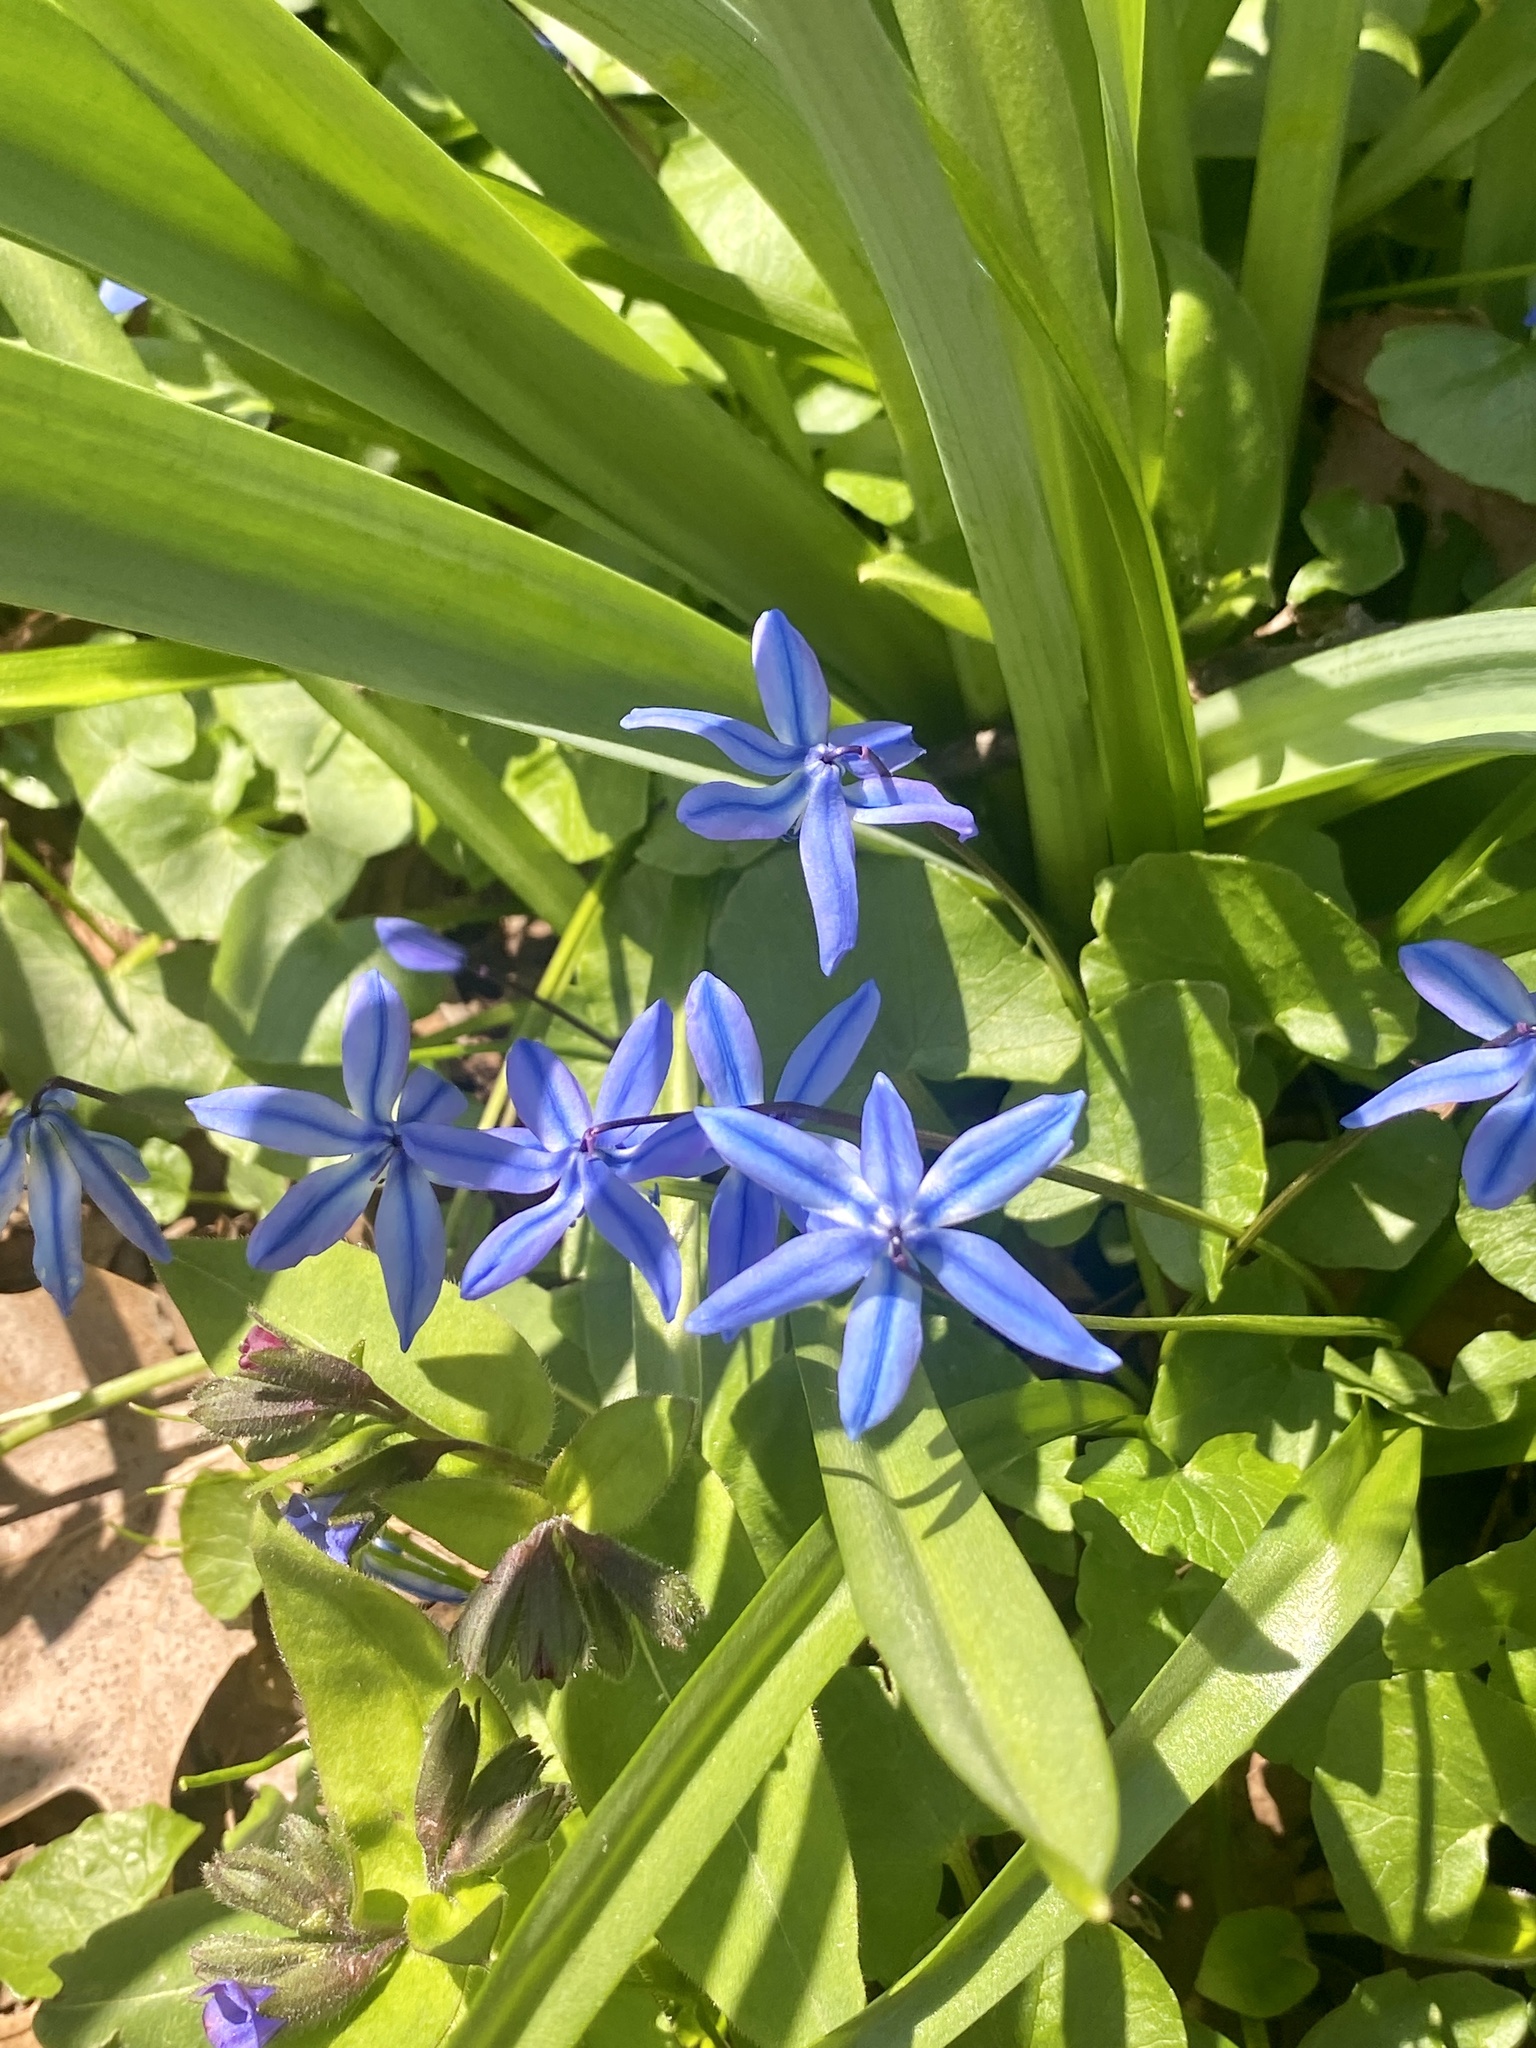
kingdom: Plantae
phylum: Tracheophyta
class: Liliopsida
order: Asparagales
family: Asparagaceae
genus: Scilla
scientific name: Scilla siberica
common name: Siberian squill
